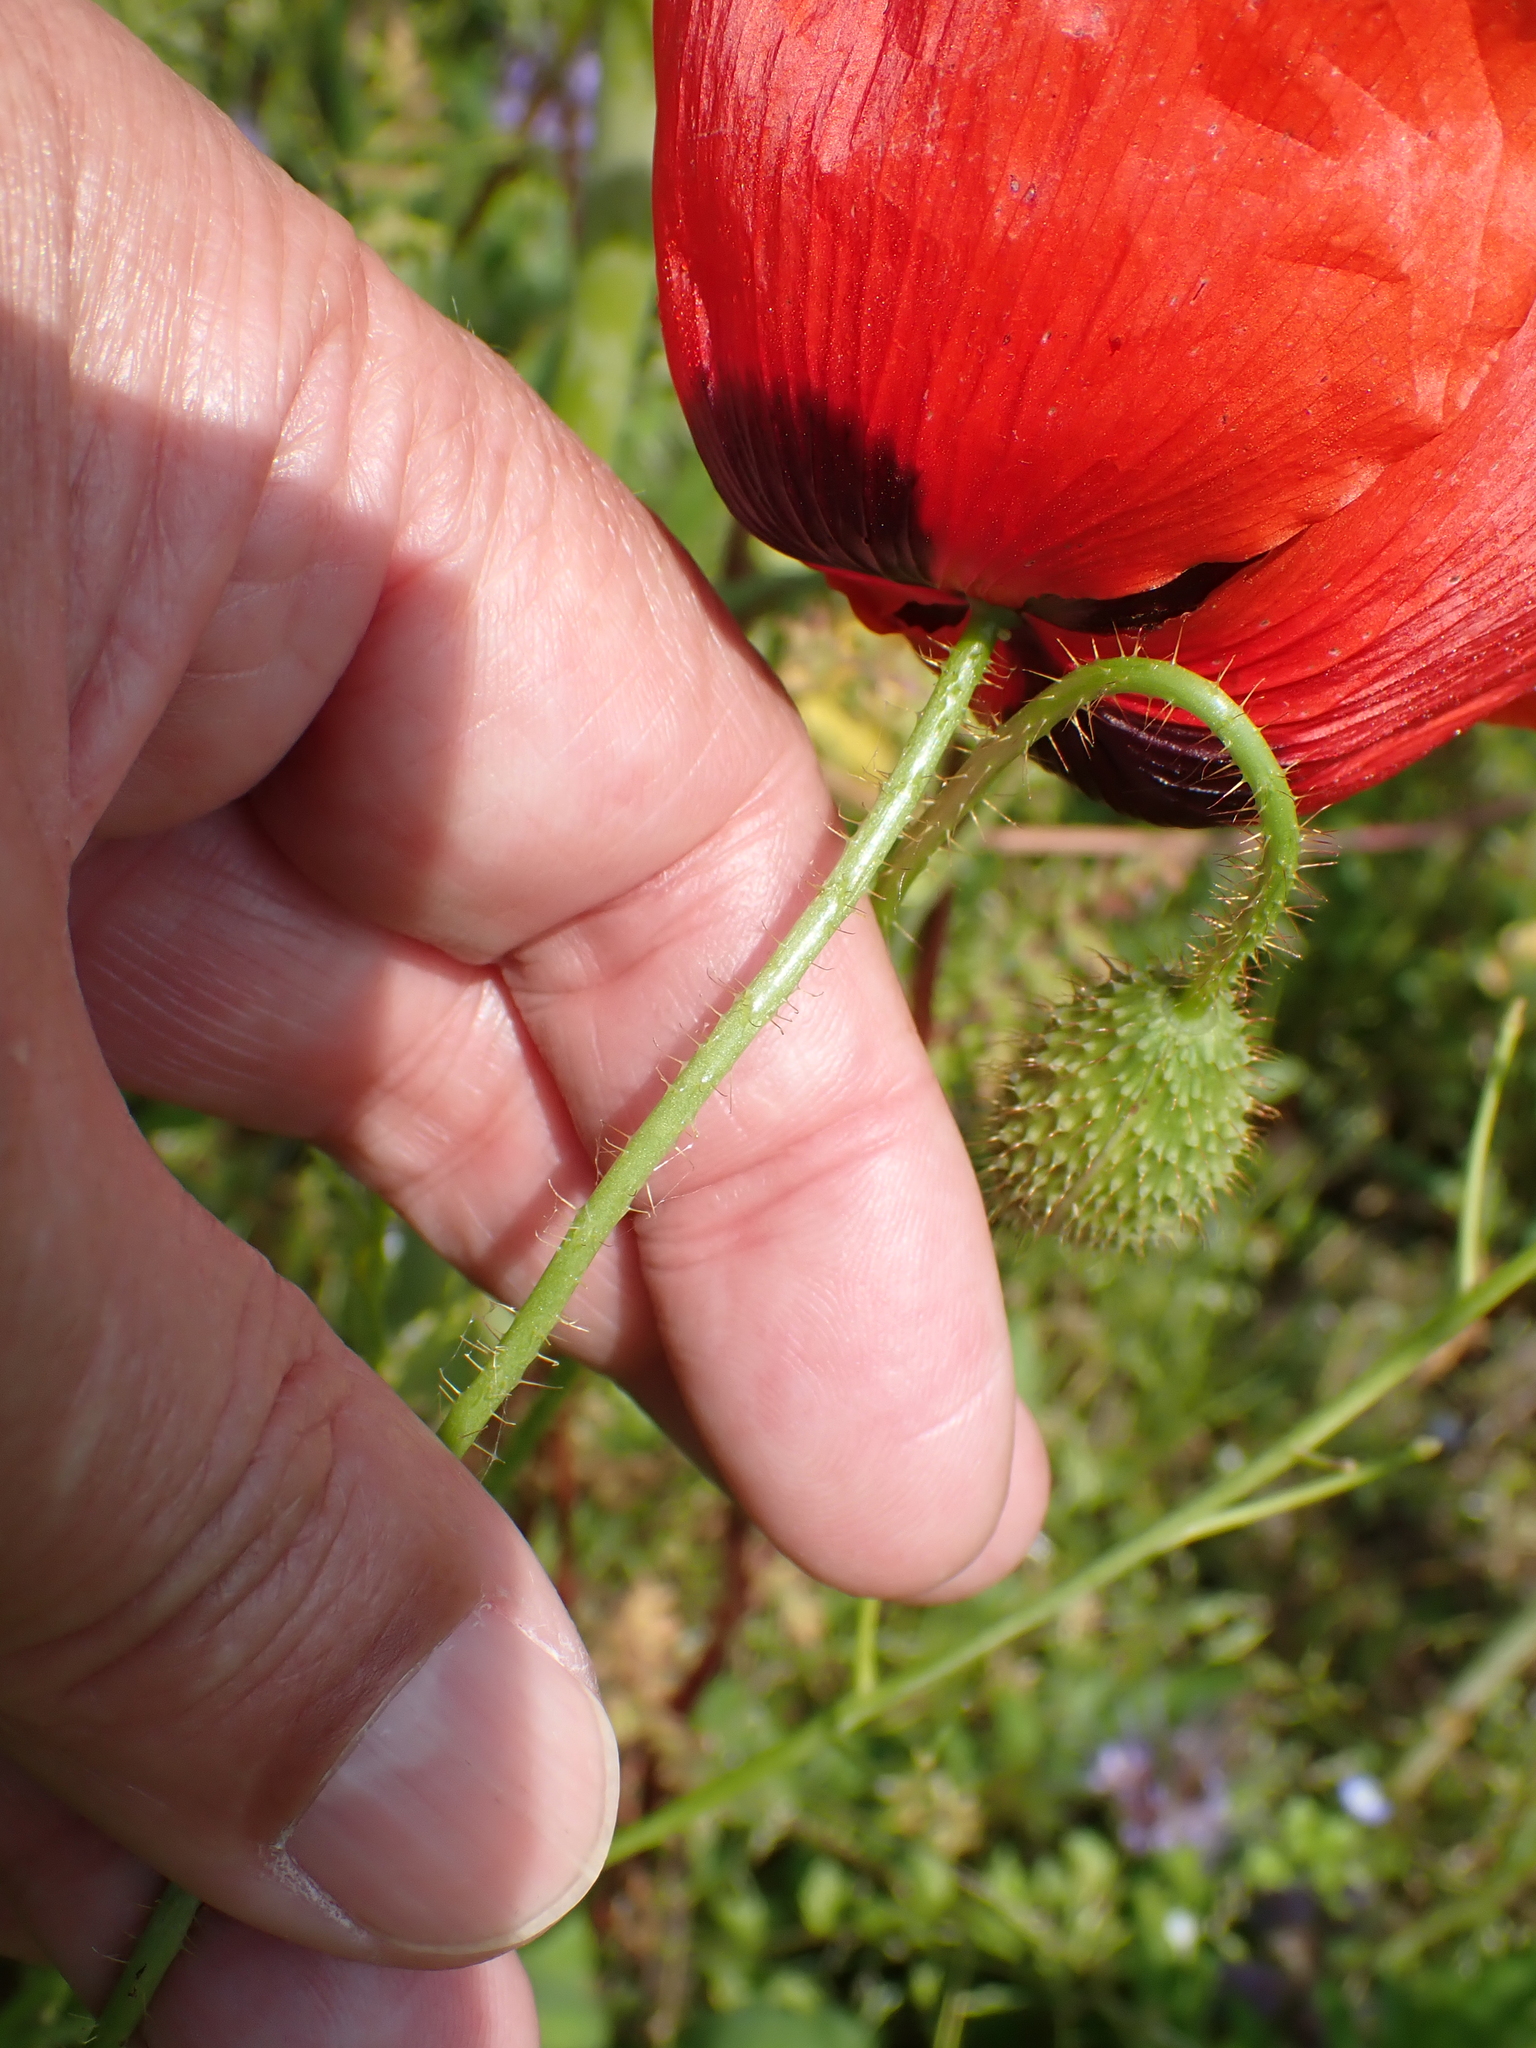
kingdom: Plantae
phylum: Tracheophyta
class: Magnoliopsida
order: Ranunculales
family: Papaveraceae
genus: Papaver
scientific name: Papaver rhoeas
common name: Corn poppy
